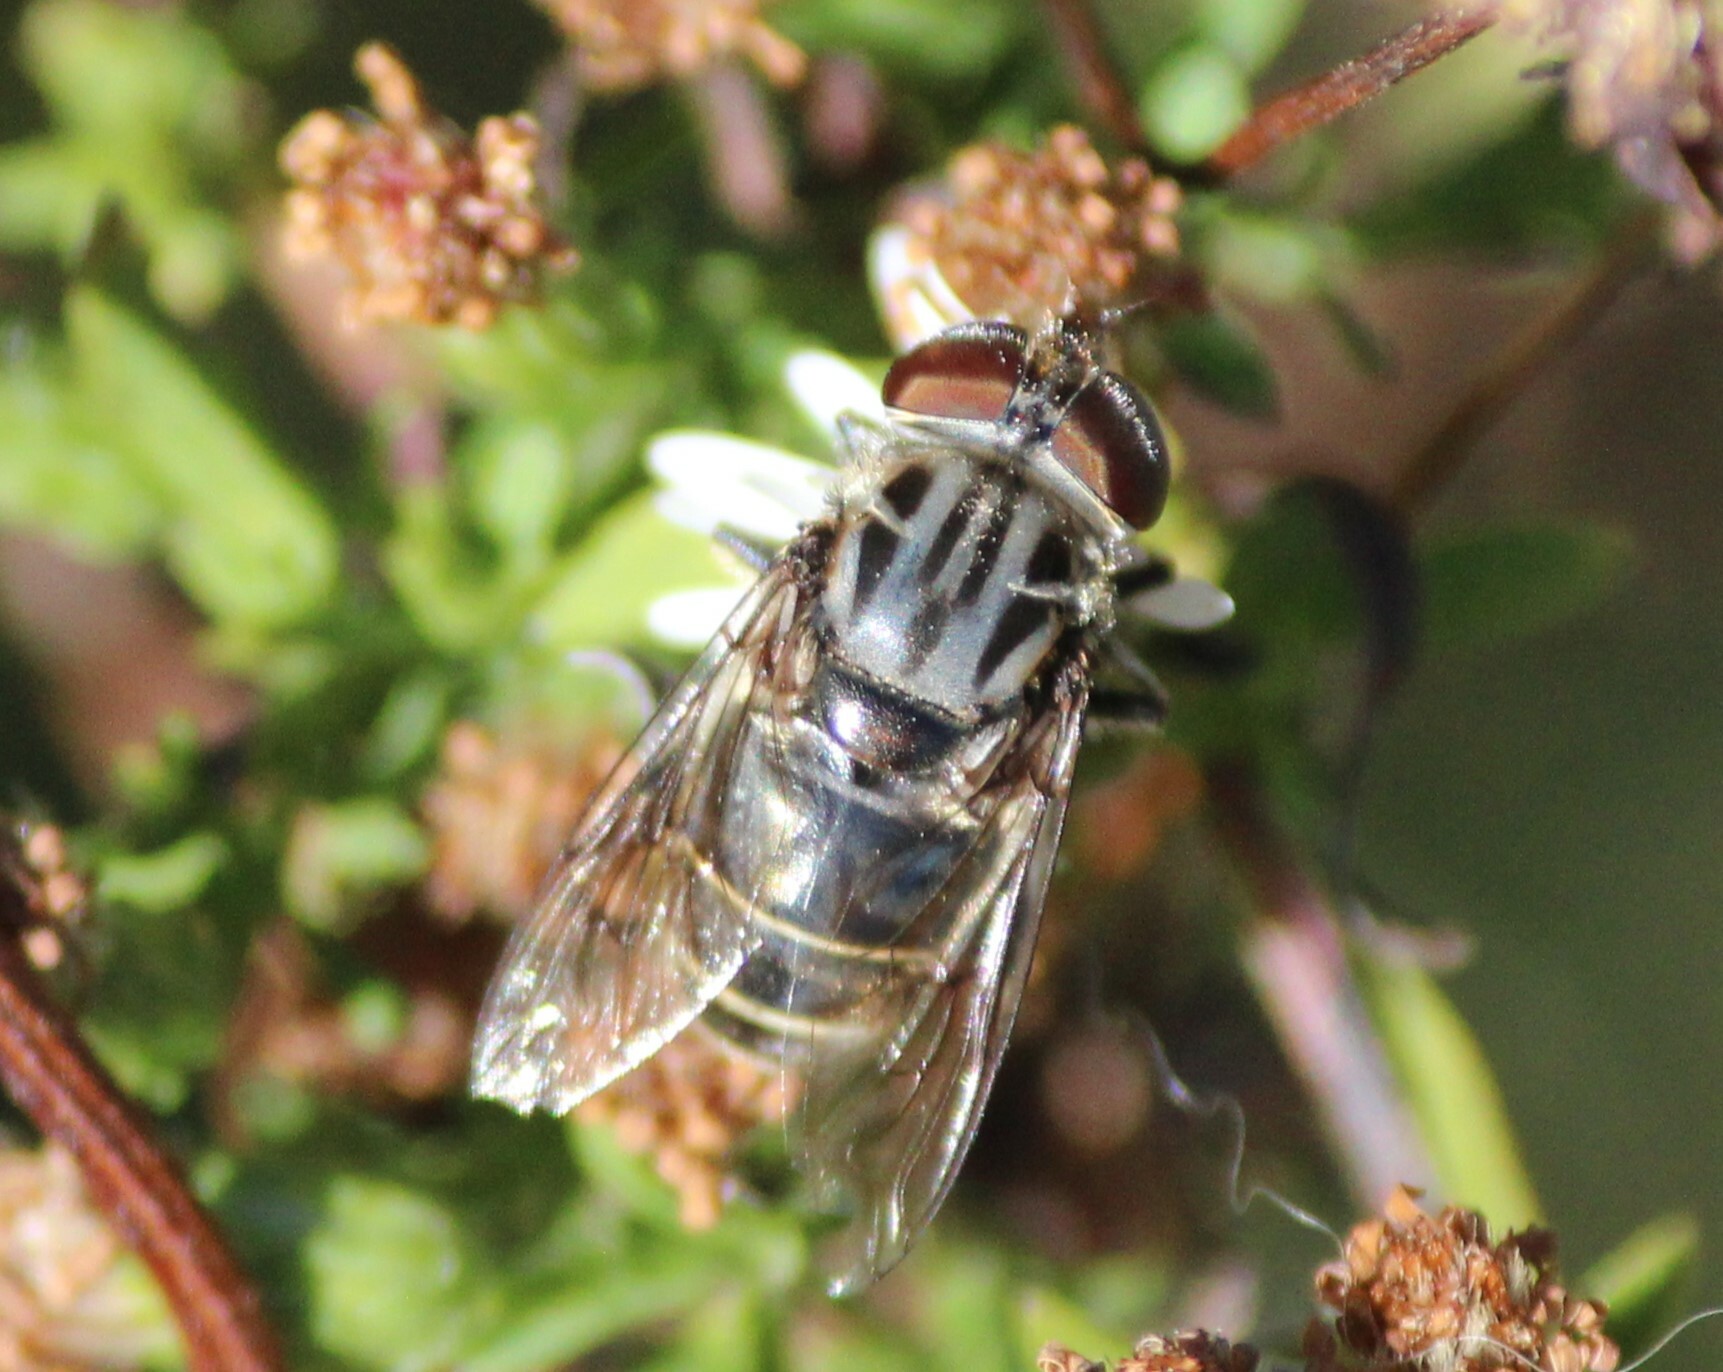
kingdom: Animalia
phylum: Arthropoda
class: Insecta
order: Diptera
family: Syrphidae
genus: Palpada
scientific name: Palpada furcata
